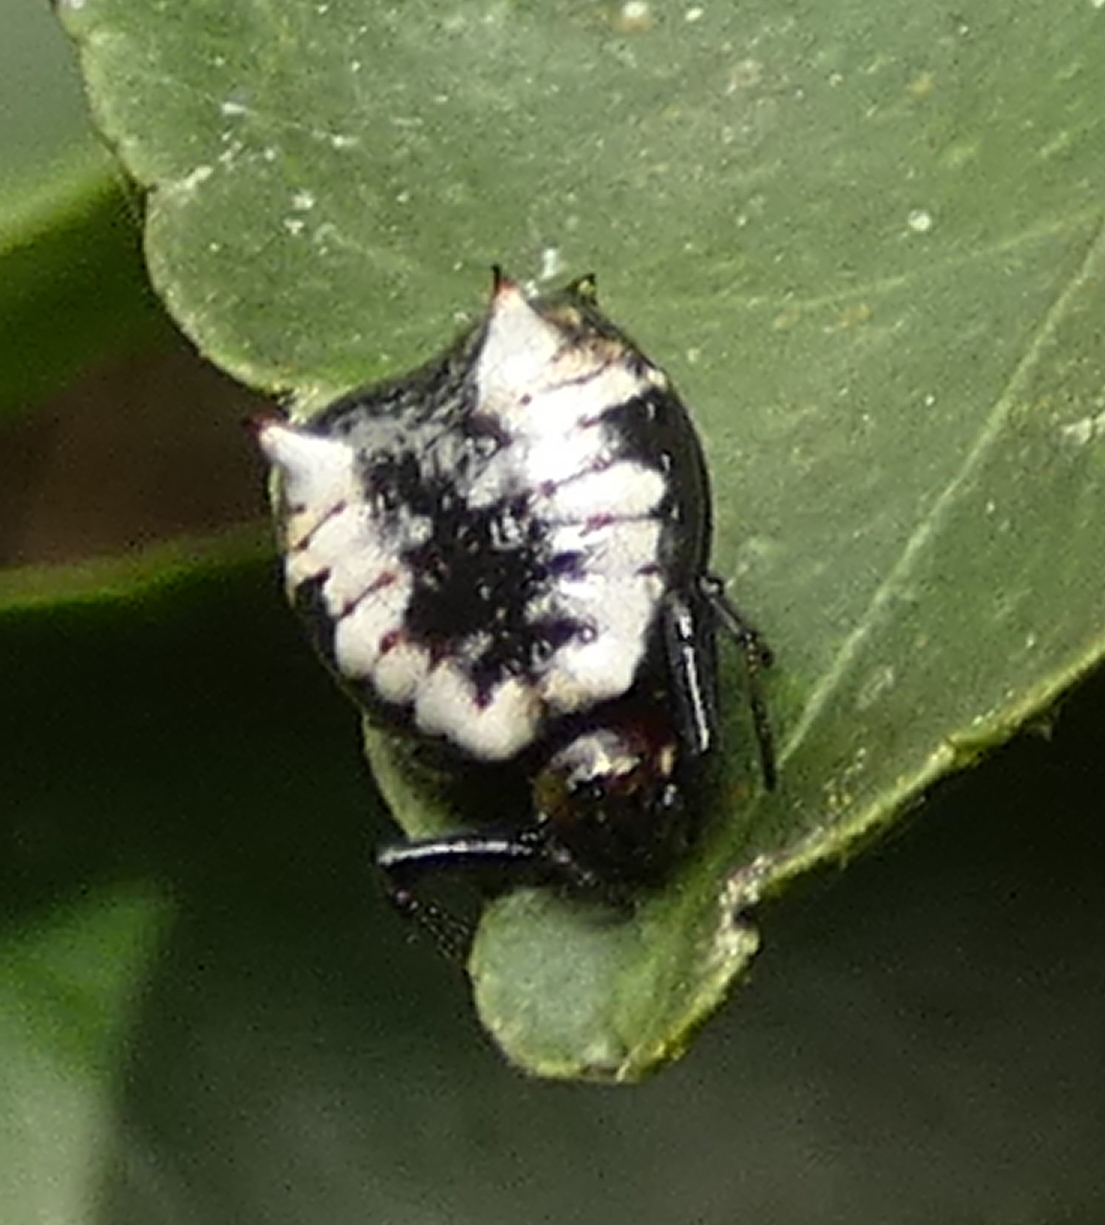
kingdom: Animalia
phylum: Arthropoda
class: Arachnida
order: Araneae
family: Araneidae
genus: Micrathena
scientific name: Micrathena patruelis
